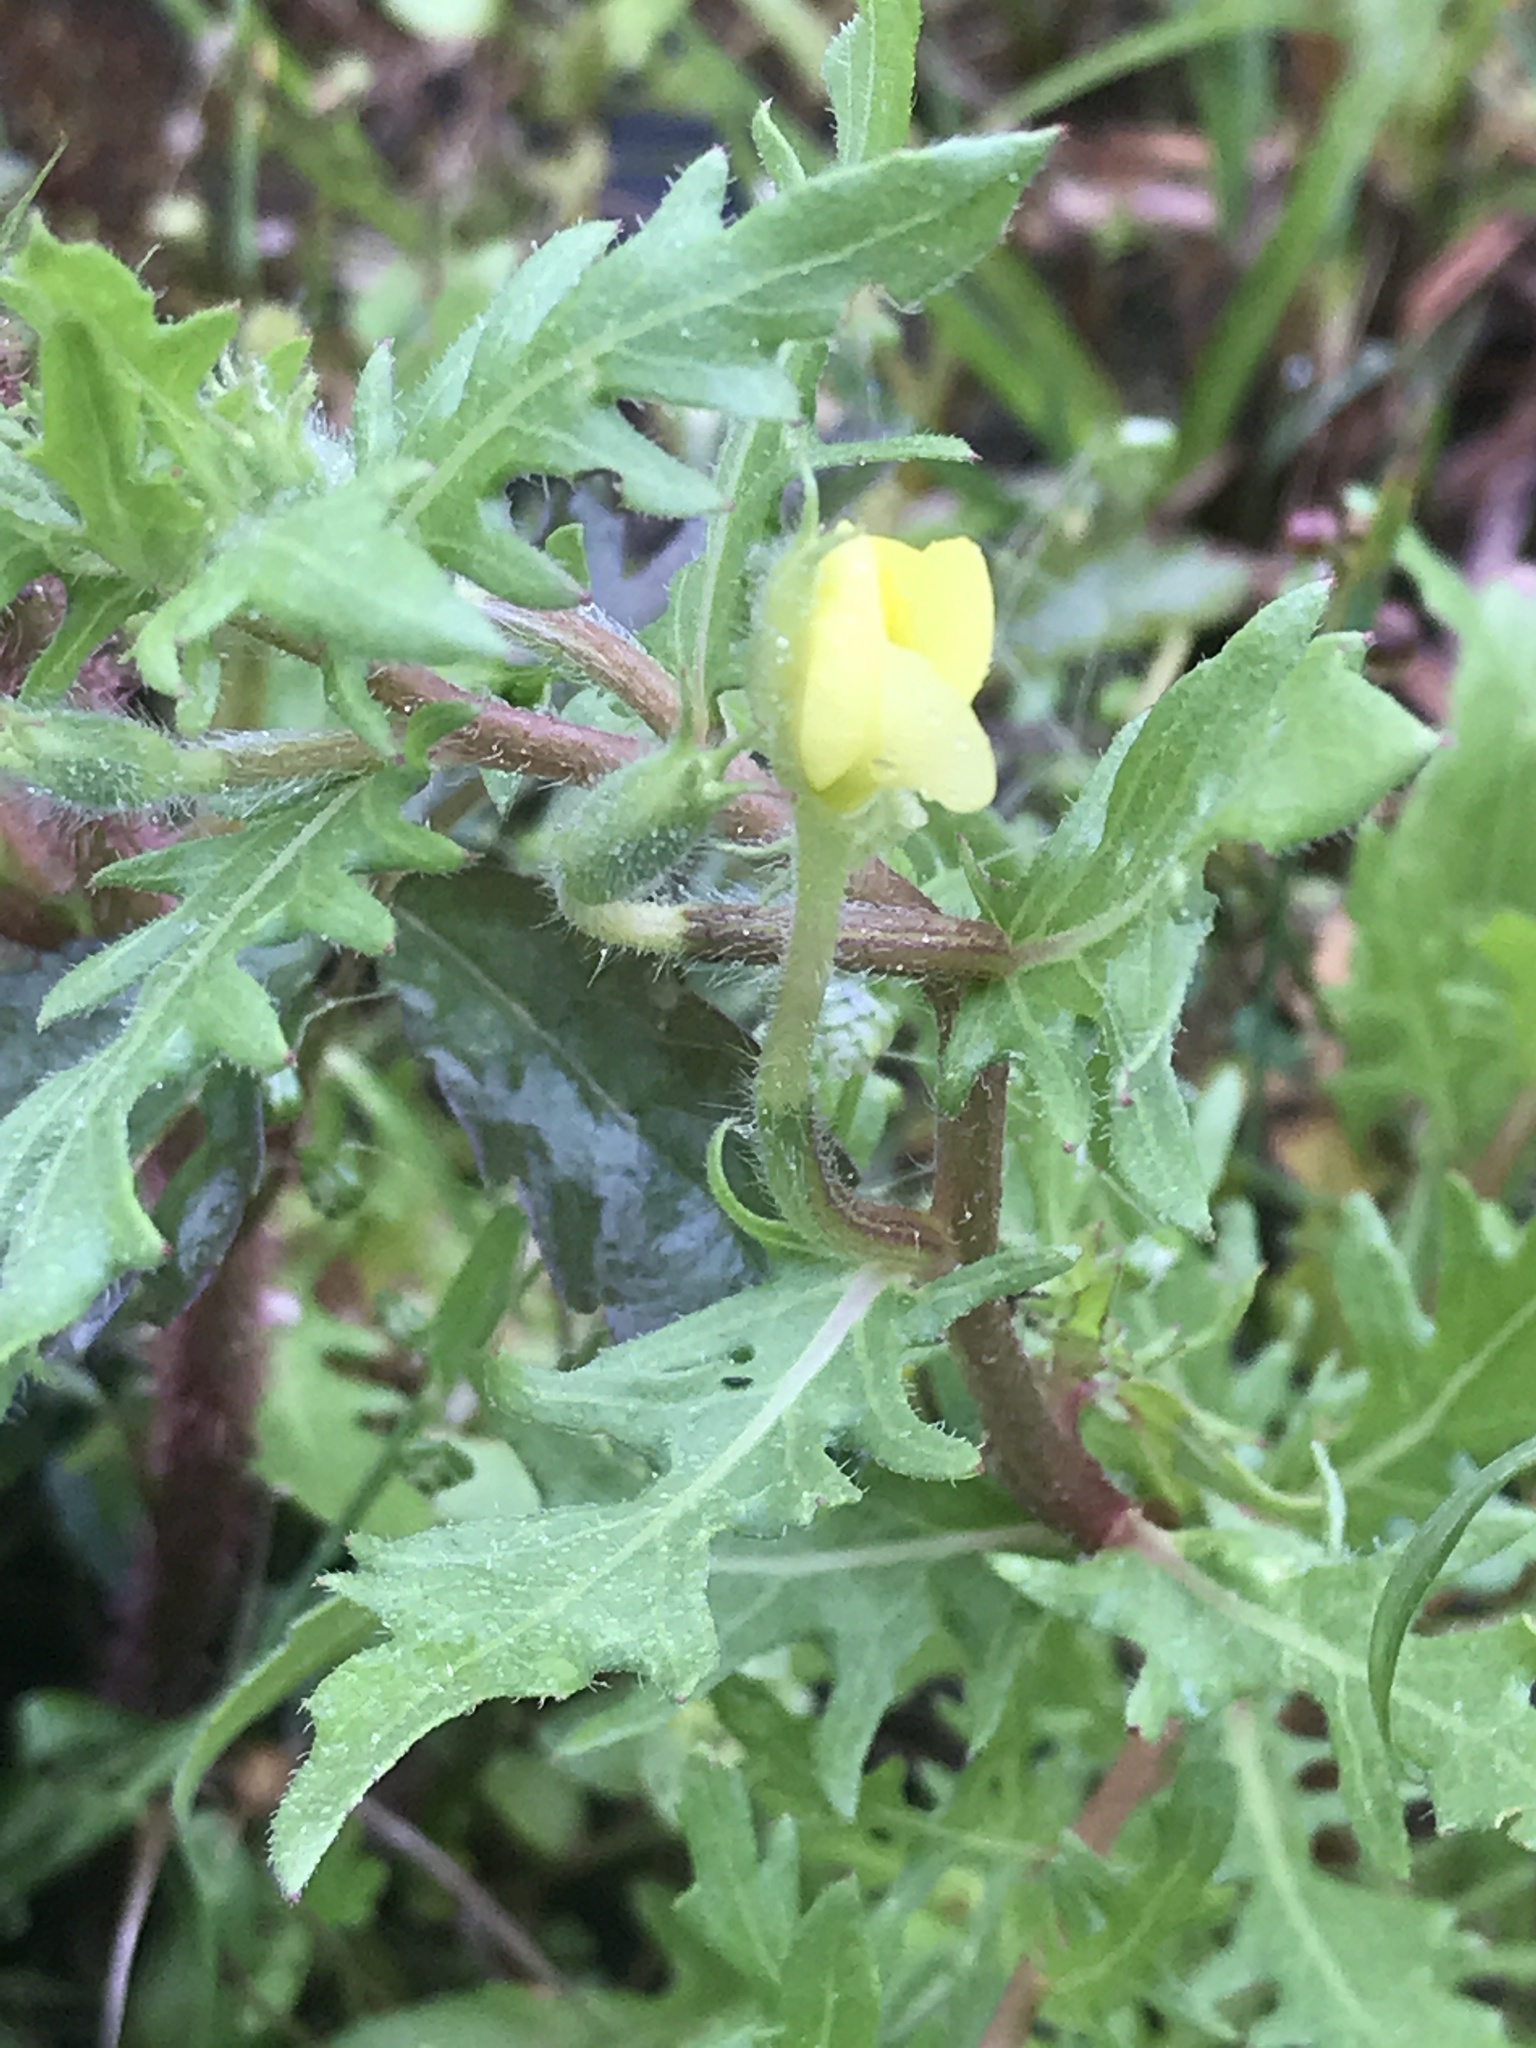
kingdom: Plantae
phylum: Tracheophyta
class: Magnoliopsida
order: Myrtales
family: Onagraceae
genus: Oenothera
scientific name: Oenothera laciniata
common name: Cut-leaved evening-primrose
